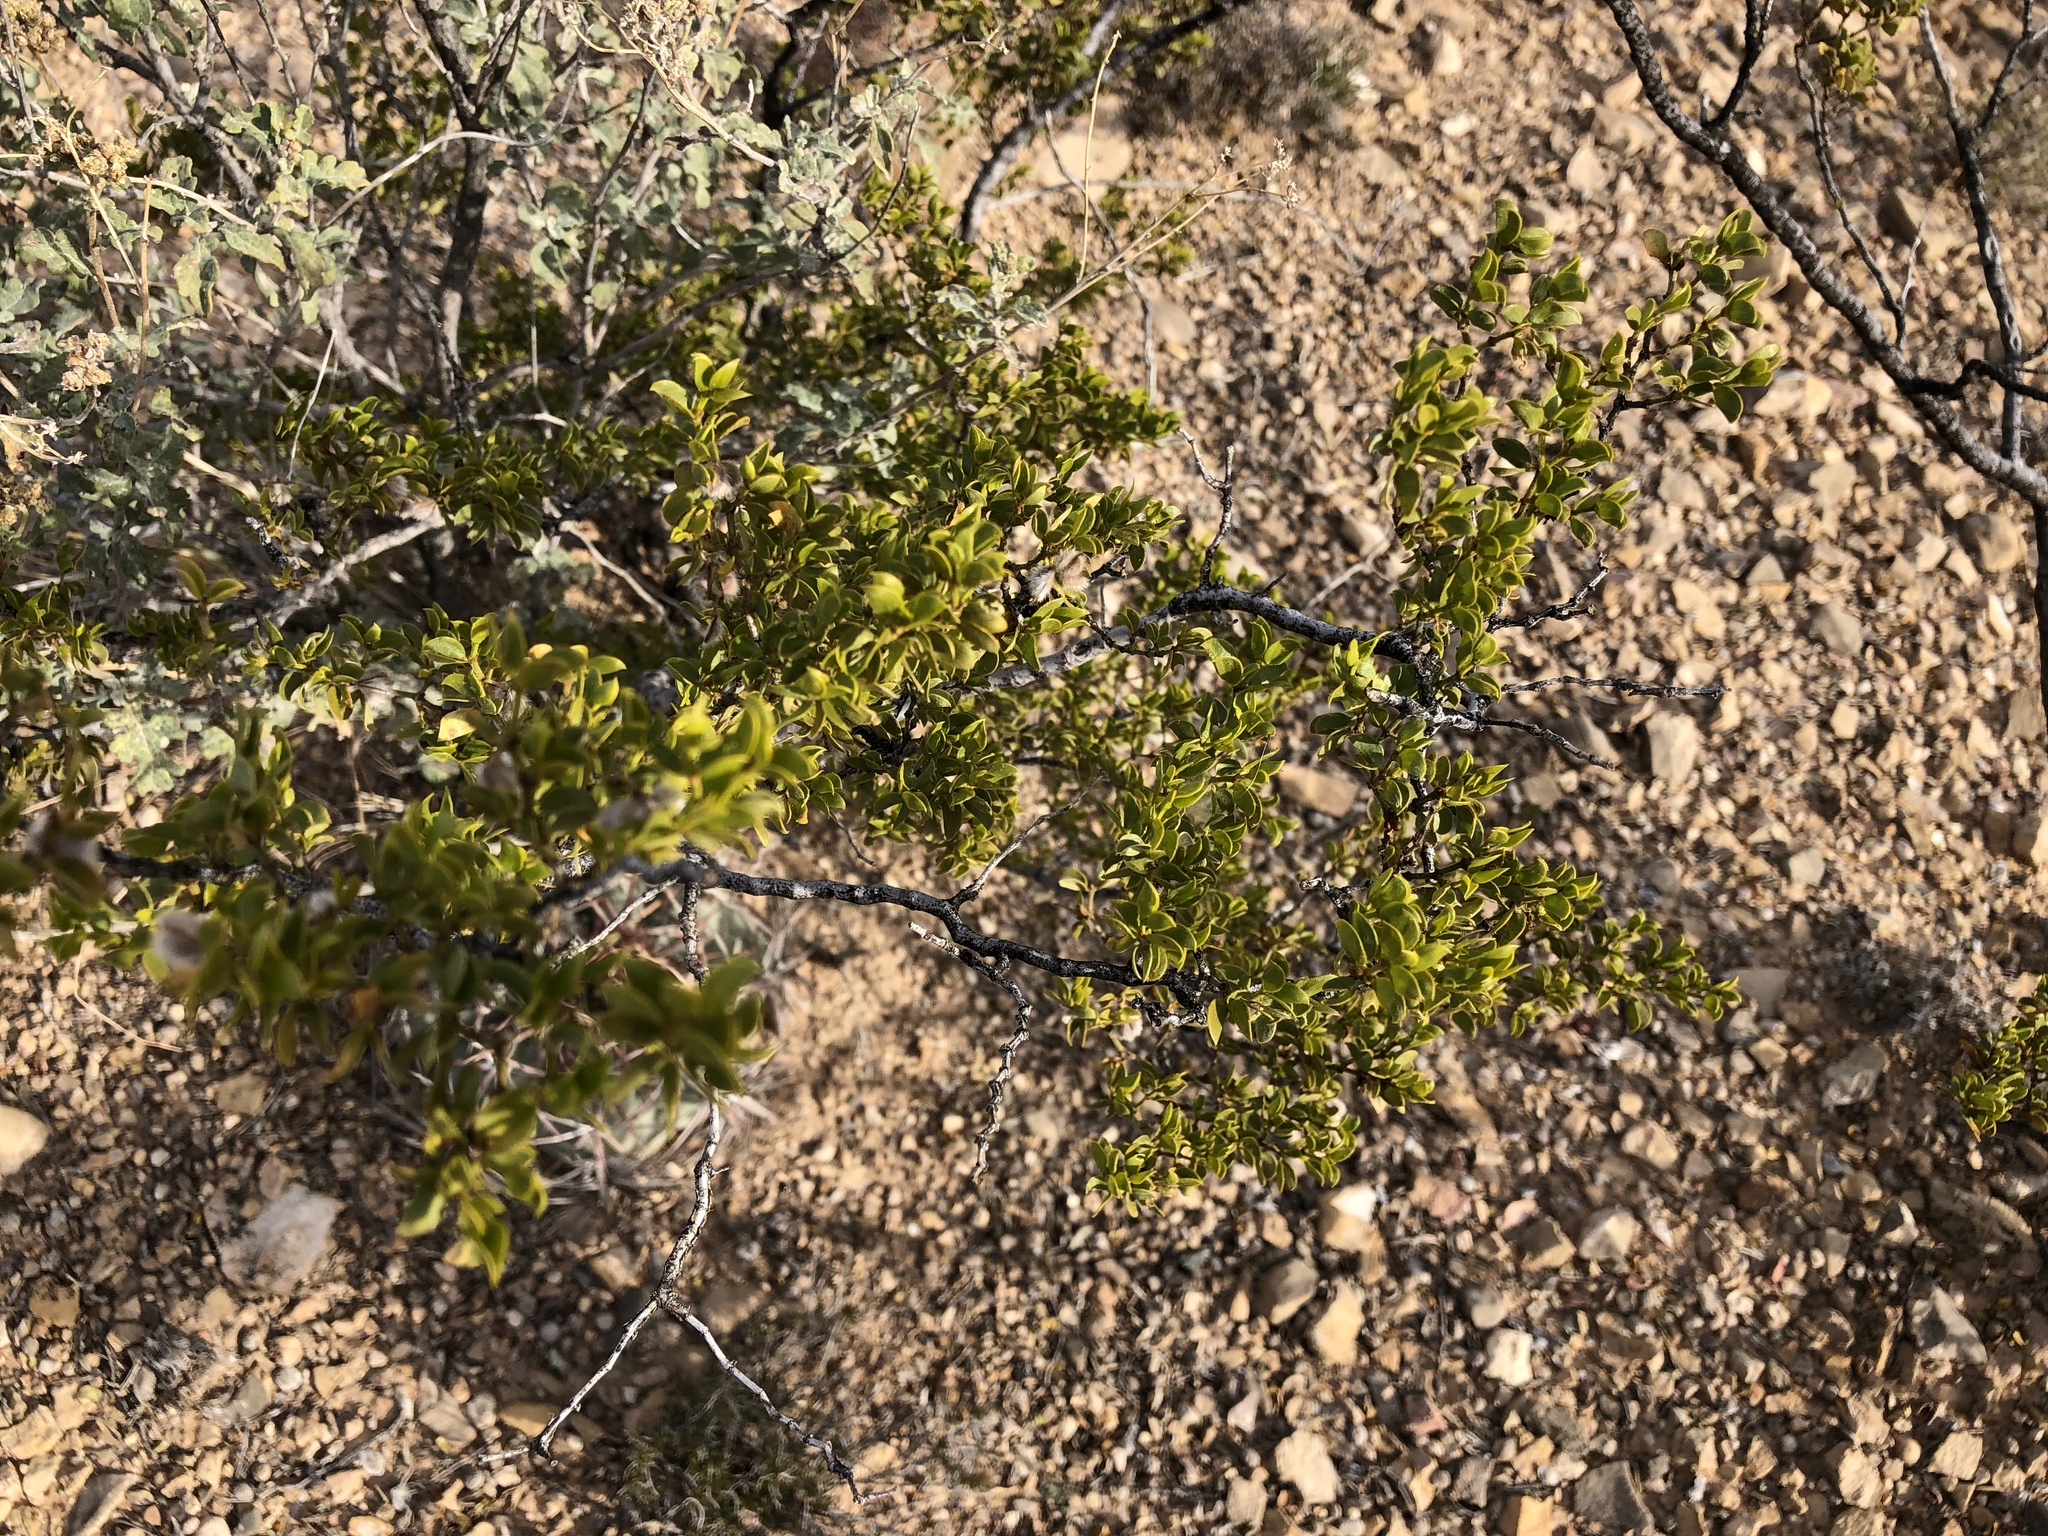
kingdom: Plantae
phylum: Tracheophyta
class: Magnoliopsida
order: Zygophyllales
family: Zygophyllaceae
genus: Larrea
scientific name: Larrea tridentata
